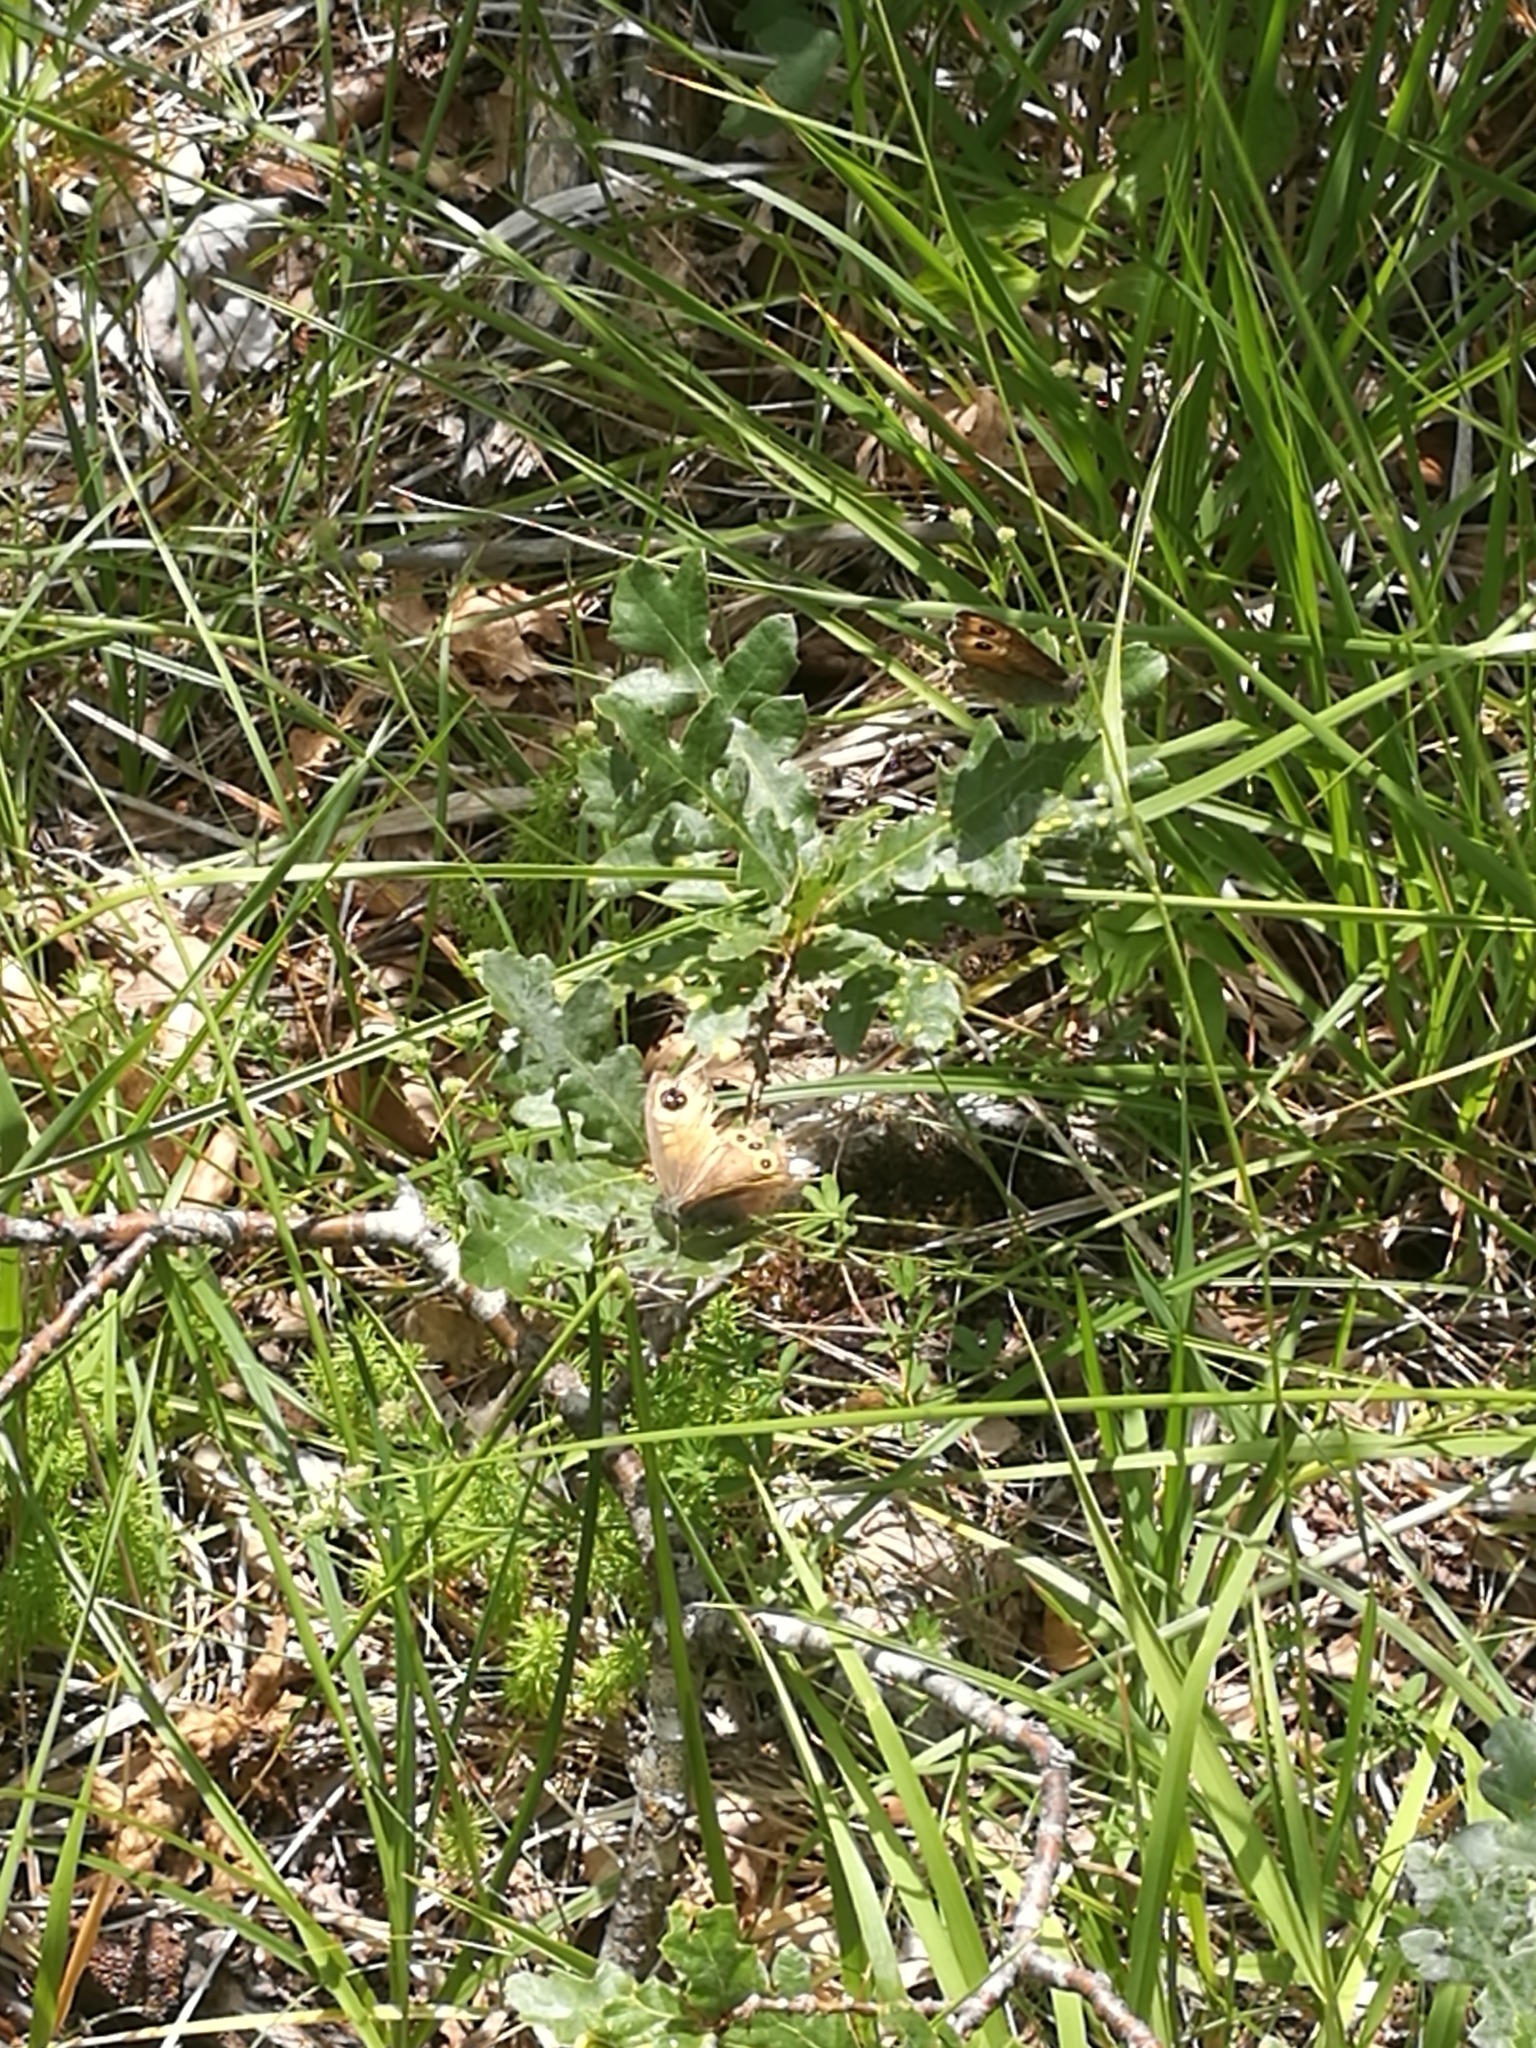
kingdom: Animalia
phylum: Arthropoda
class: Insecta
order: Lepidoptera
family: Nymphalidae
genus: Pararge
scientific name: Pararge Lasiommata maera
